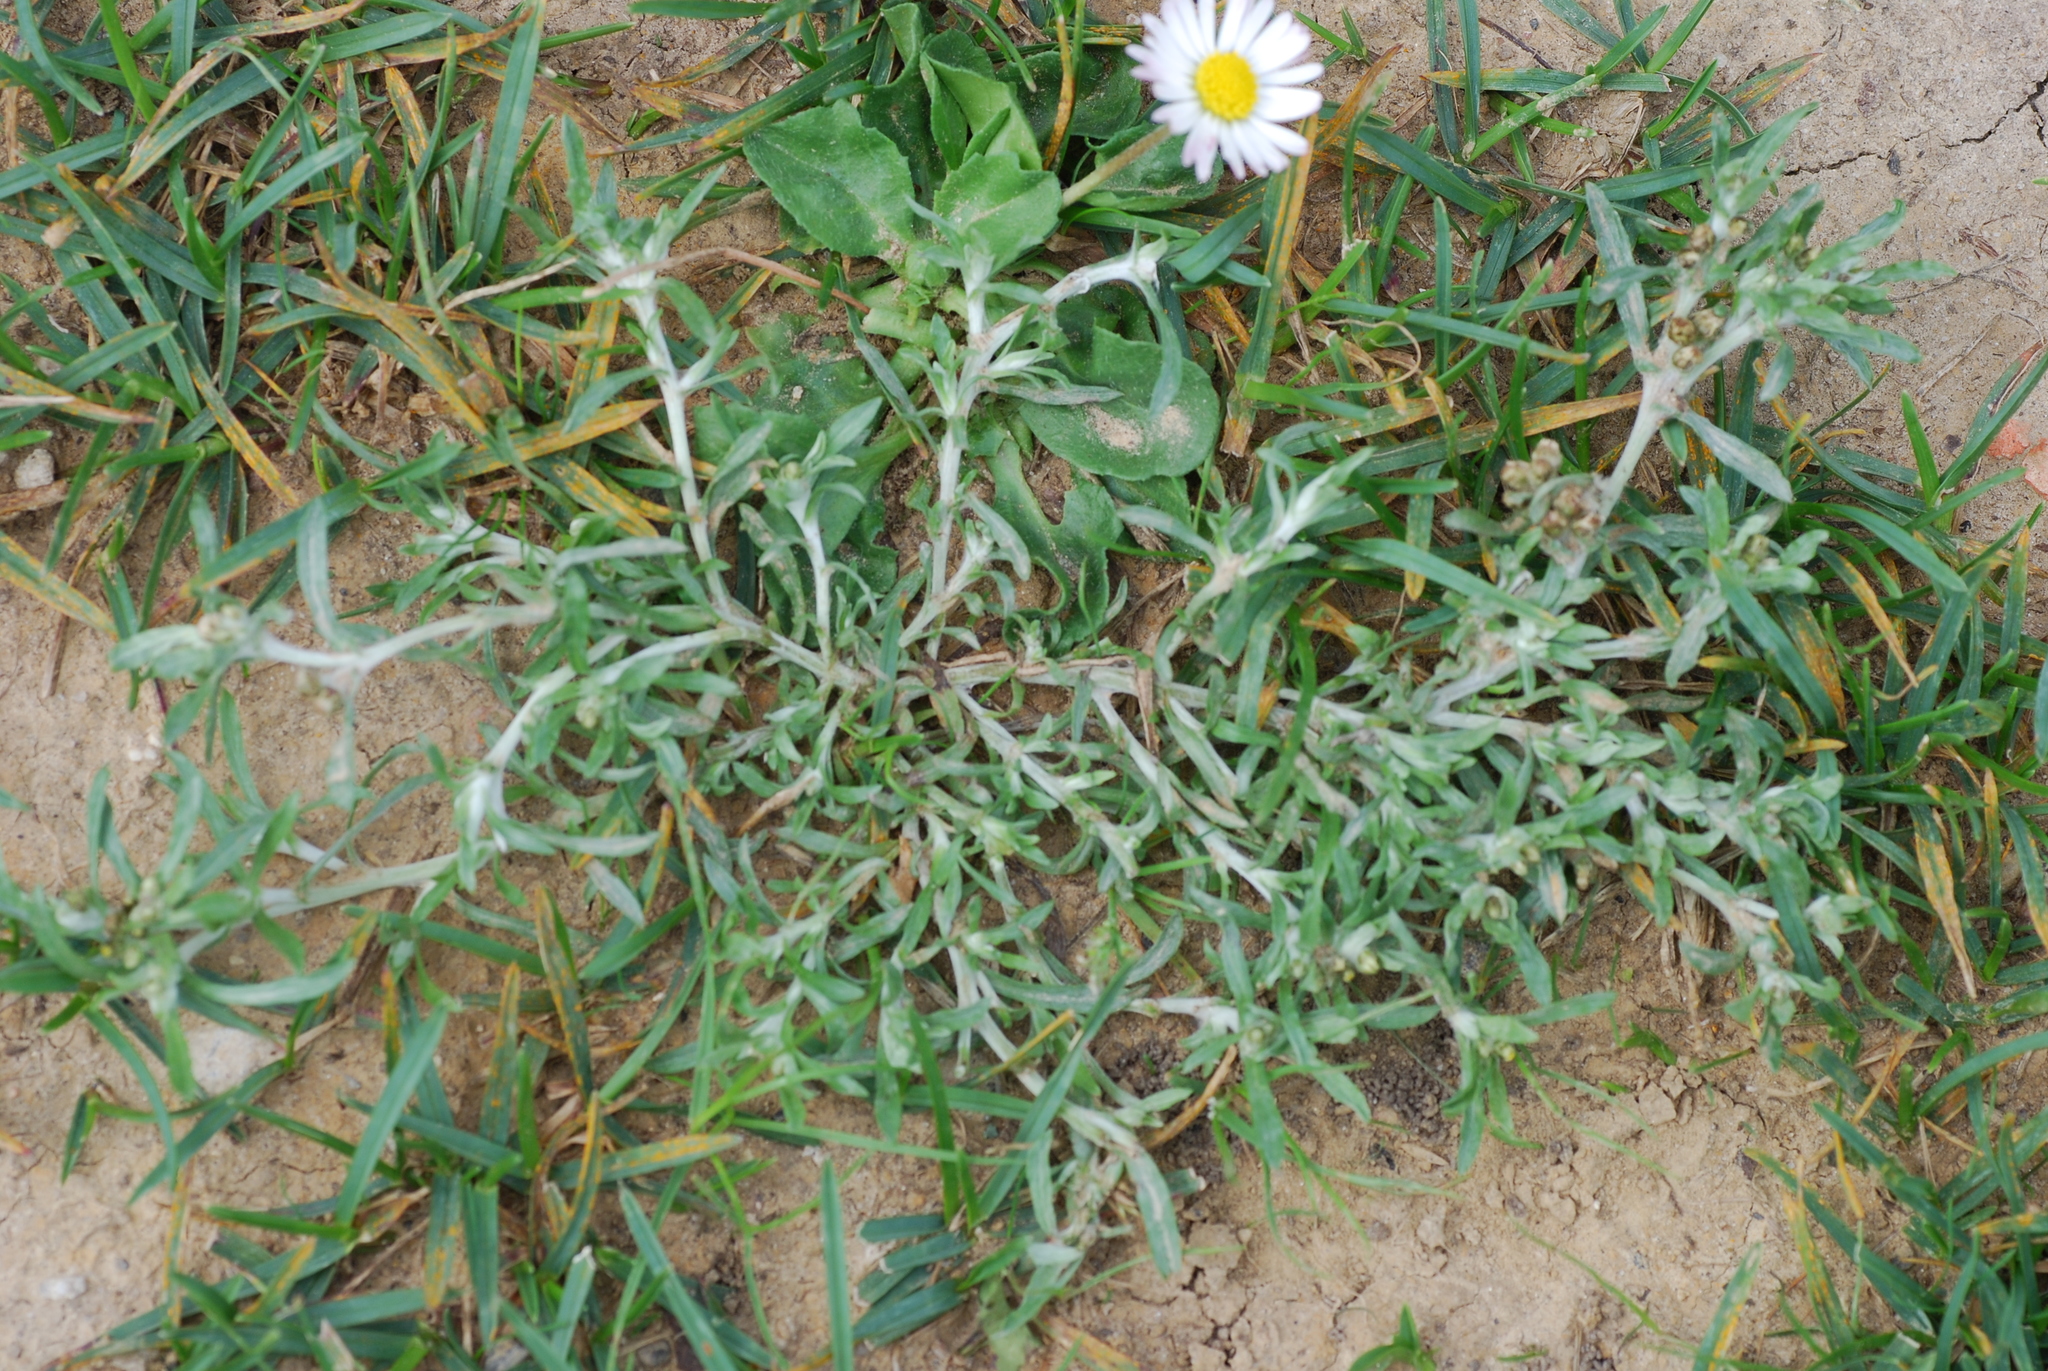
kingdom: Plantae
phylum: Tracheophyta
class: Magnoliopsida
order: Asterales
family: Asteraceae
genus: Gnaphalium
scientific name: Gnaphalium uliginosum
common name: Marsh cudweed
